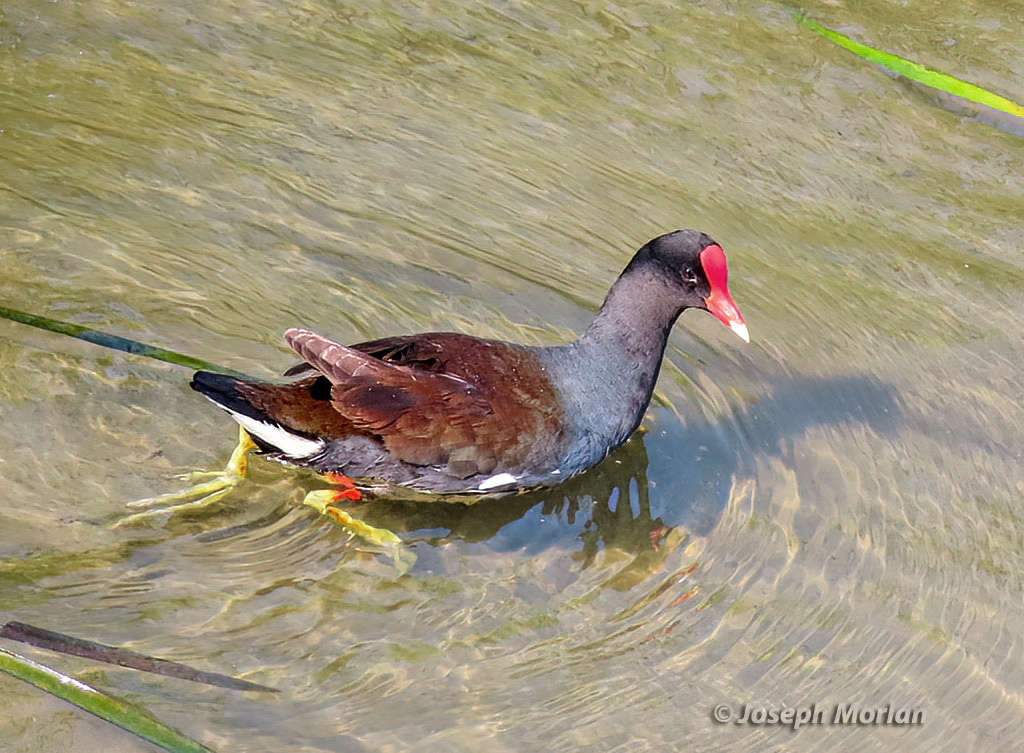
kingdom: Animalia
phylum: Chordata
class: Aves
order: Gruiformes
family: Rallidae
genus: Gallinula
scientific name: Gallinula chloropus
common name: Common moorhen
